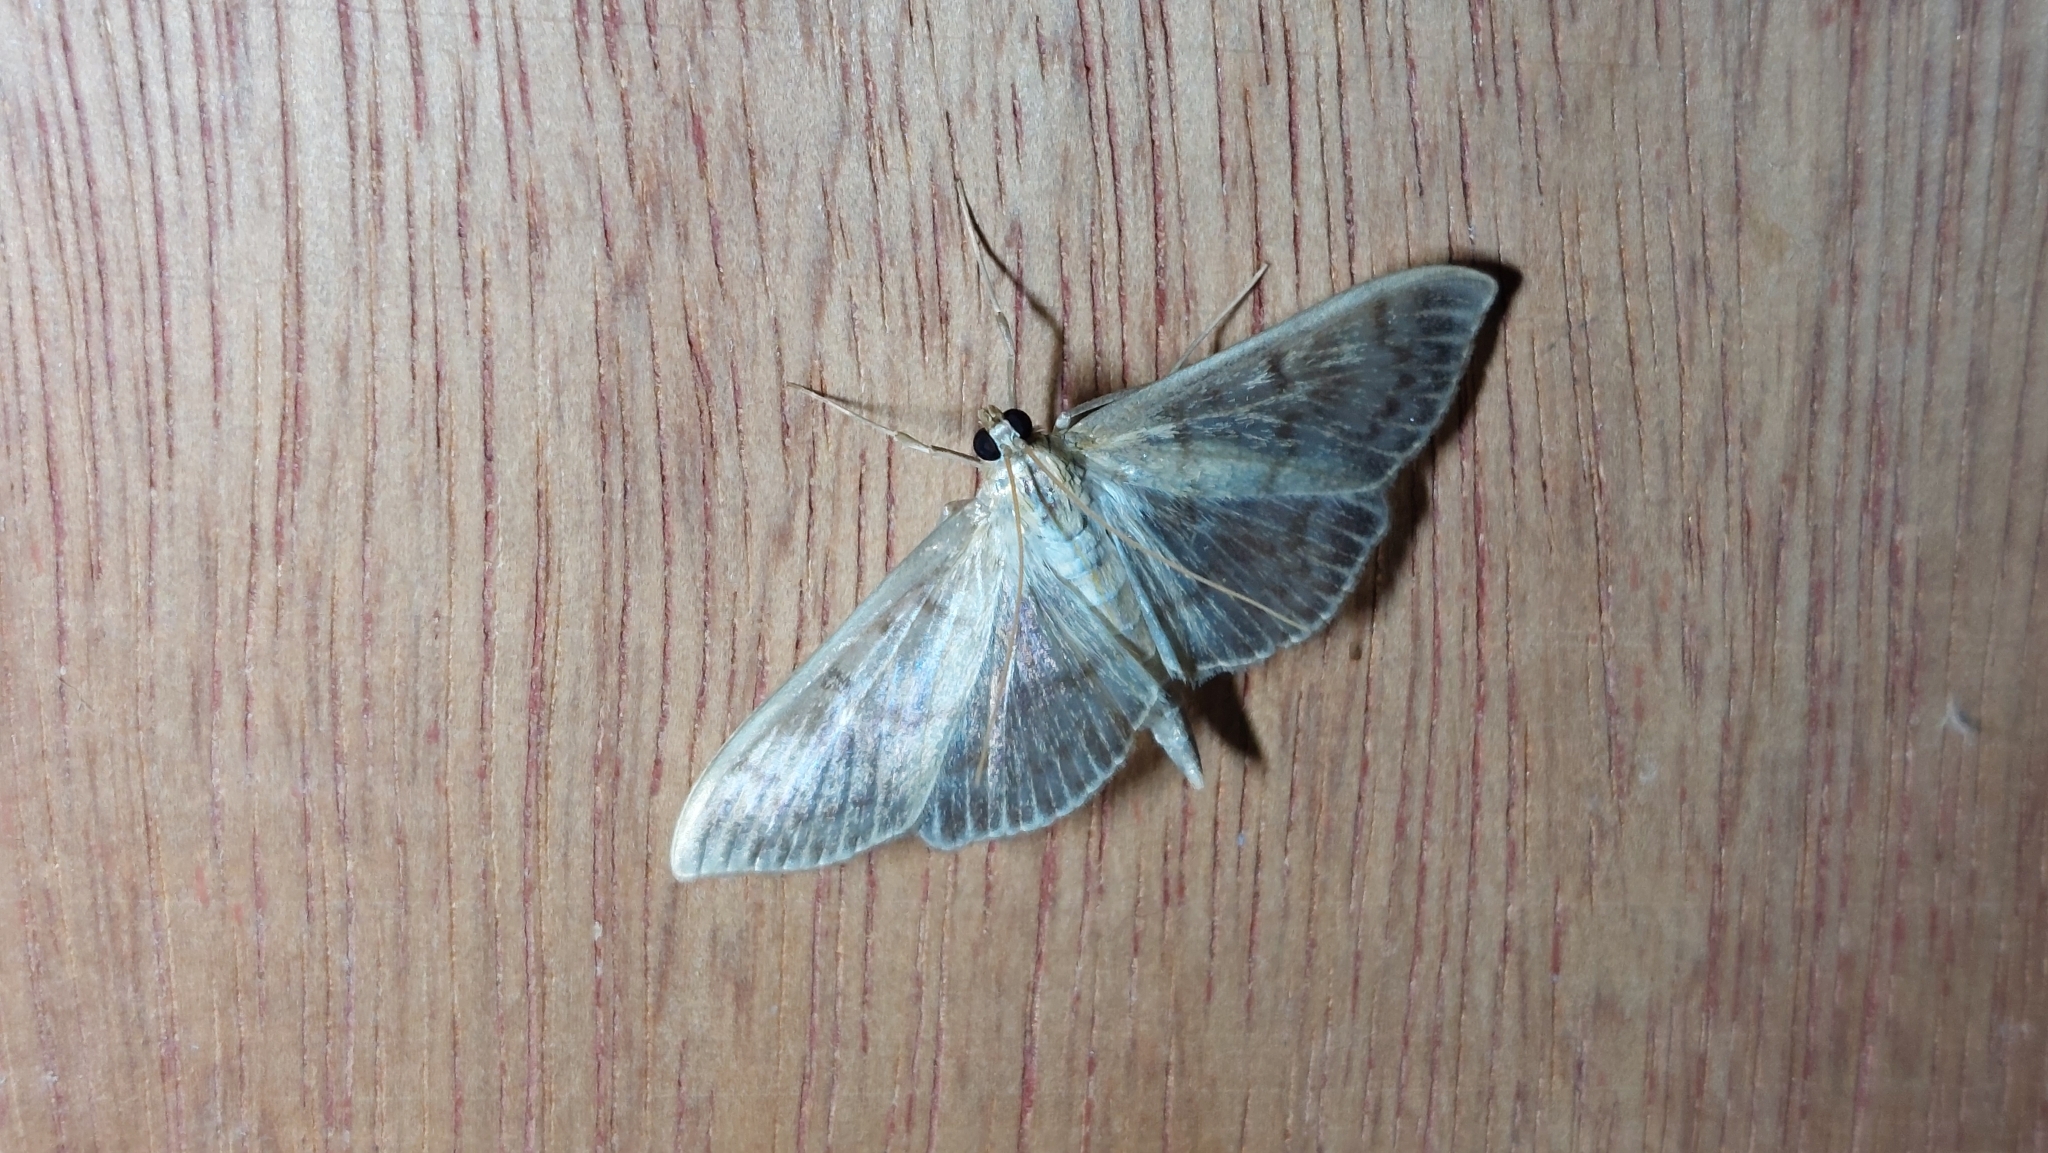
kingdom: Animalia
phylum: Arthropoda
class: Insecta
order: Lepidoptera
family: Crambidae
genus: Patania
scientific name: Patania ruralis
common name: Mother of pearl
